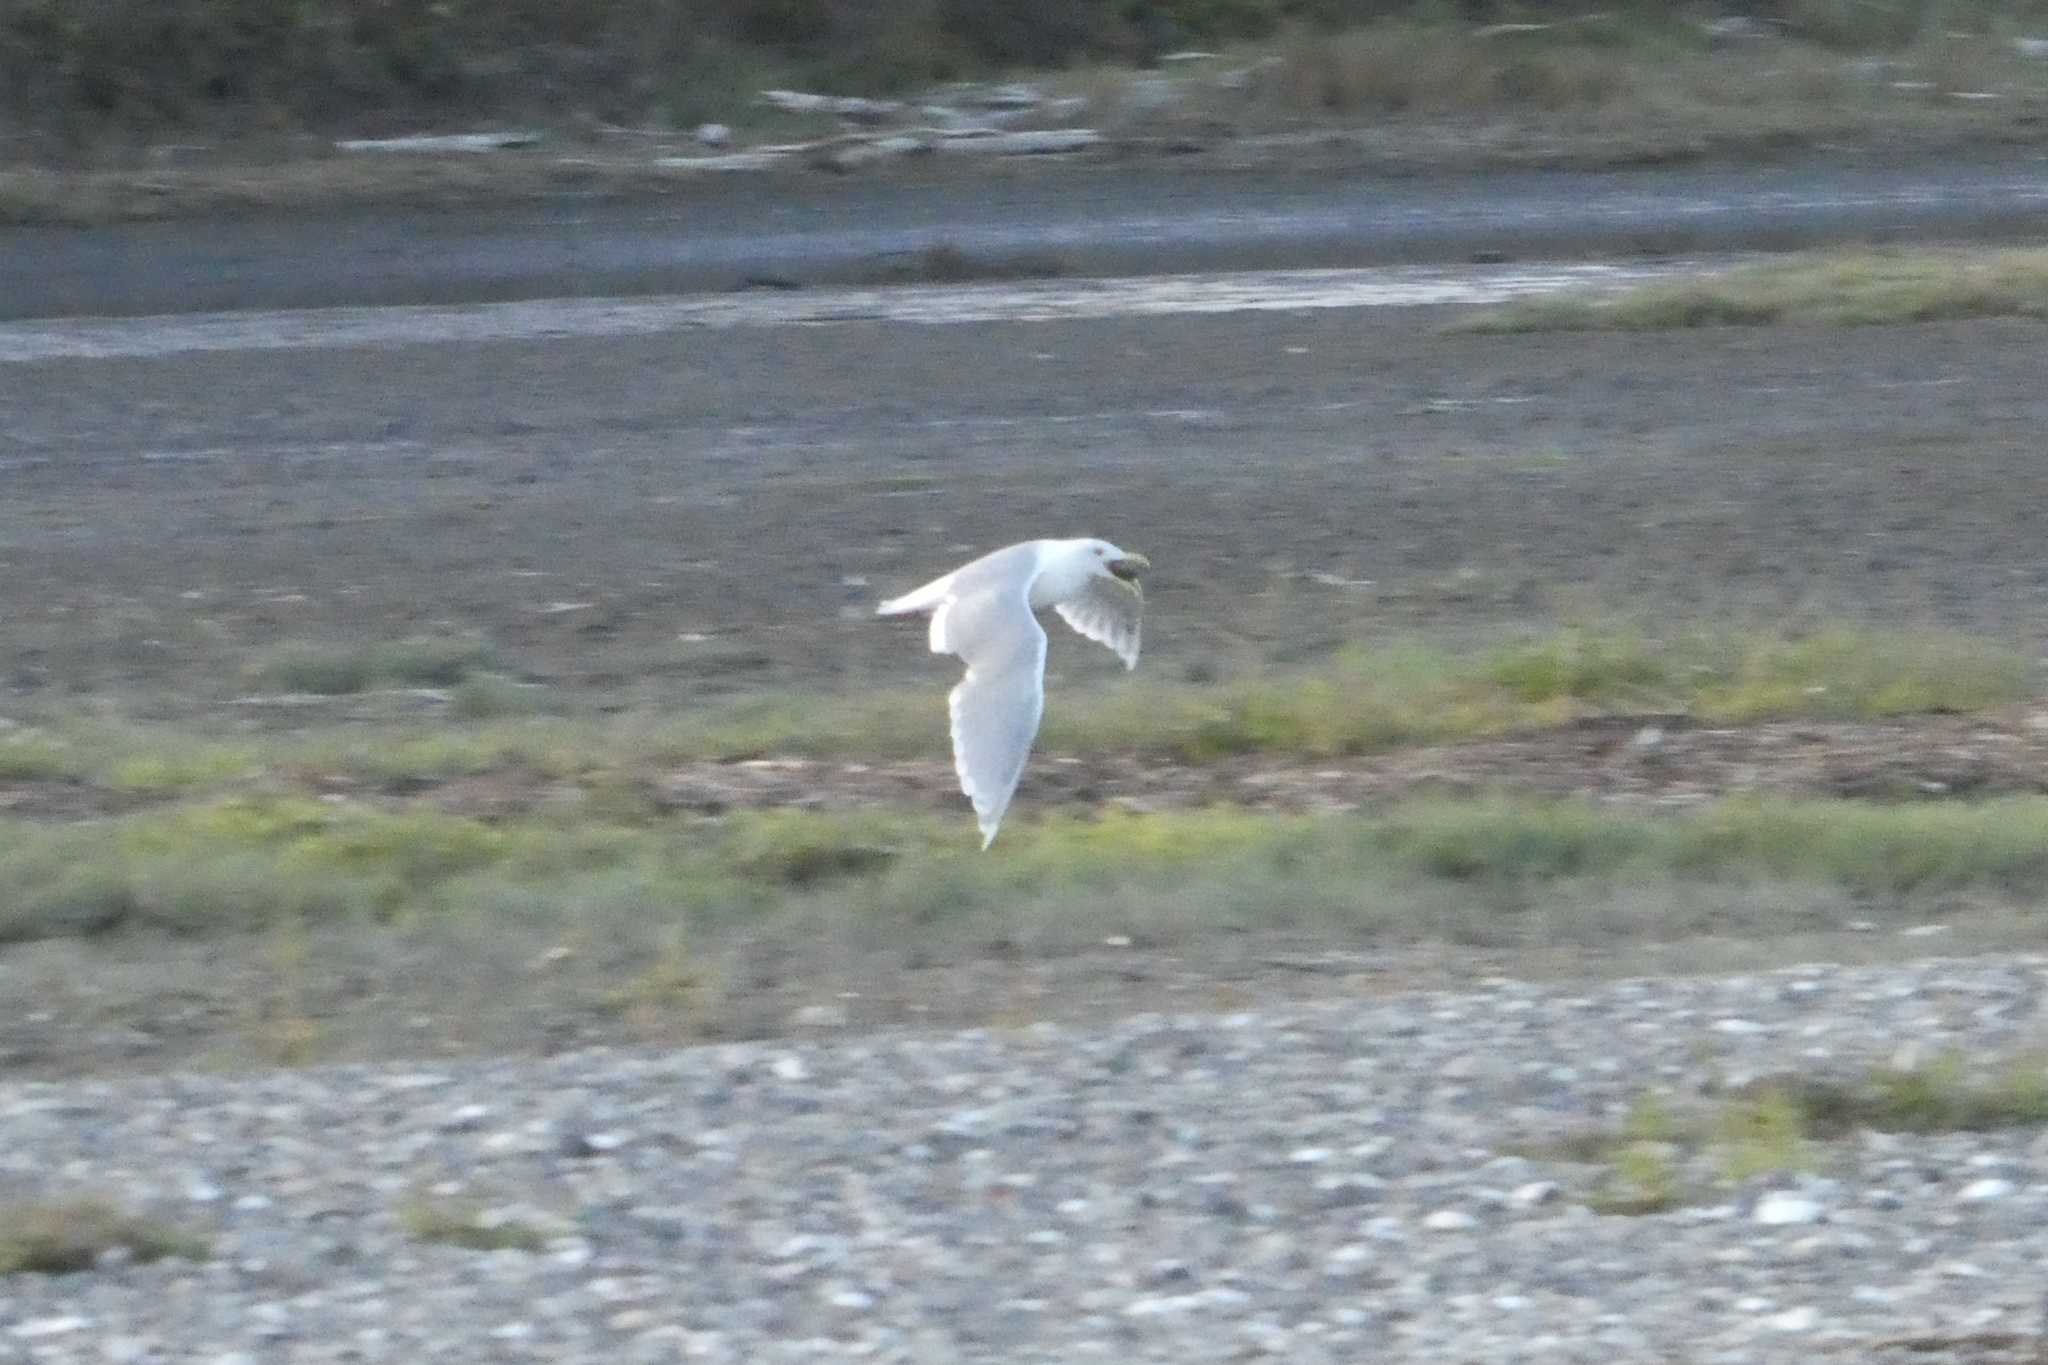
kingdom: Animalia
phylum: Chordata
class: Aves
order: Charadriiformes
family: Laridae
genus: Larus
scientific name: Larus glaucescens
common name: Glaucous-winged gull
